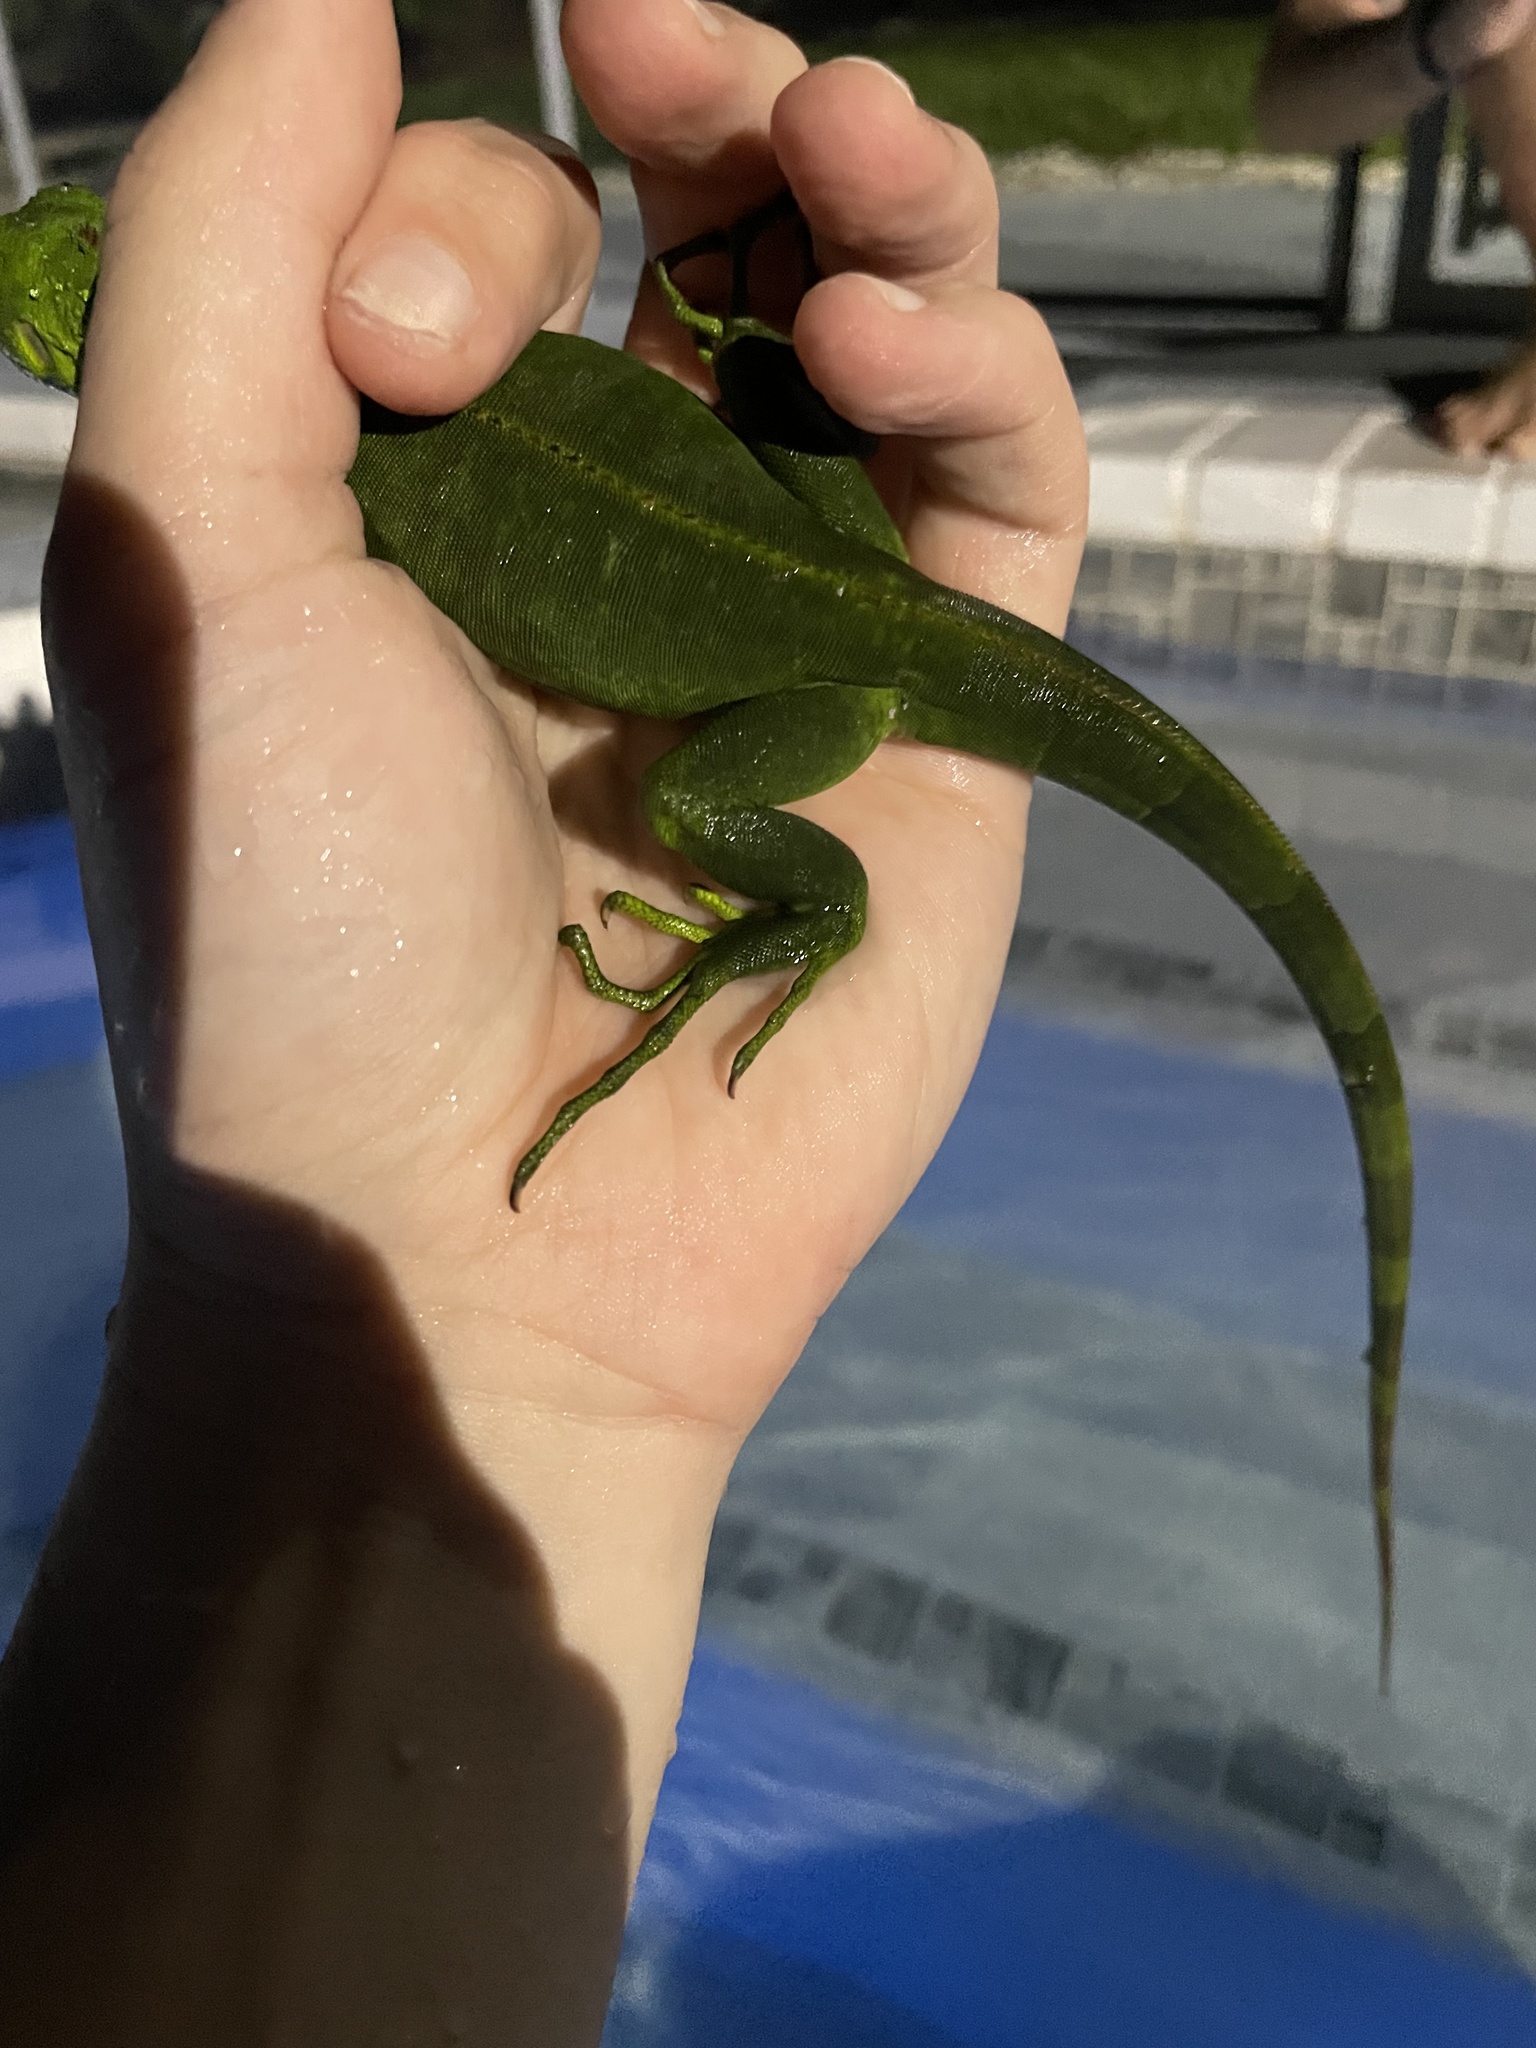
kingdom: Animalia
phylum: Chordata
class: Squamata
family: Iguanidae
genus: Iguana
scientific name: Iguana iguana
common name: Green iguana
